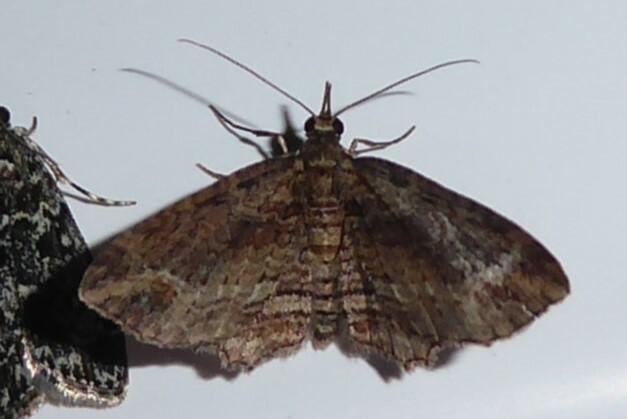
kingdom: Animalia
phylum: Arthropoda
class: Insecta
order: Lepidoptera
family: Geometridae
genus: Chloroclystis
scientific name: Chloroclystis filata
